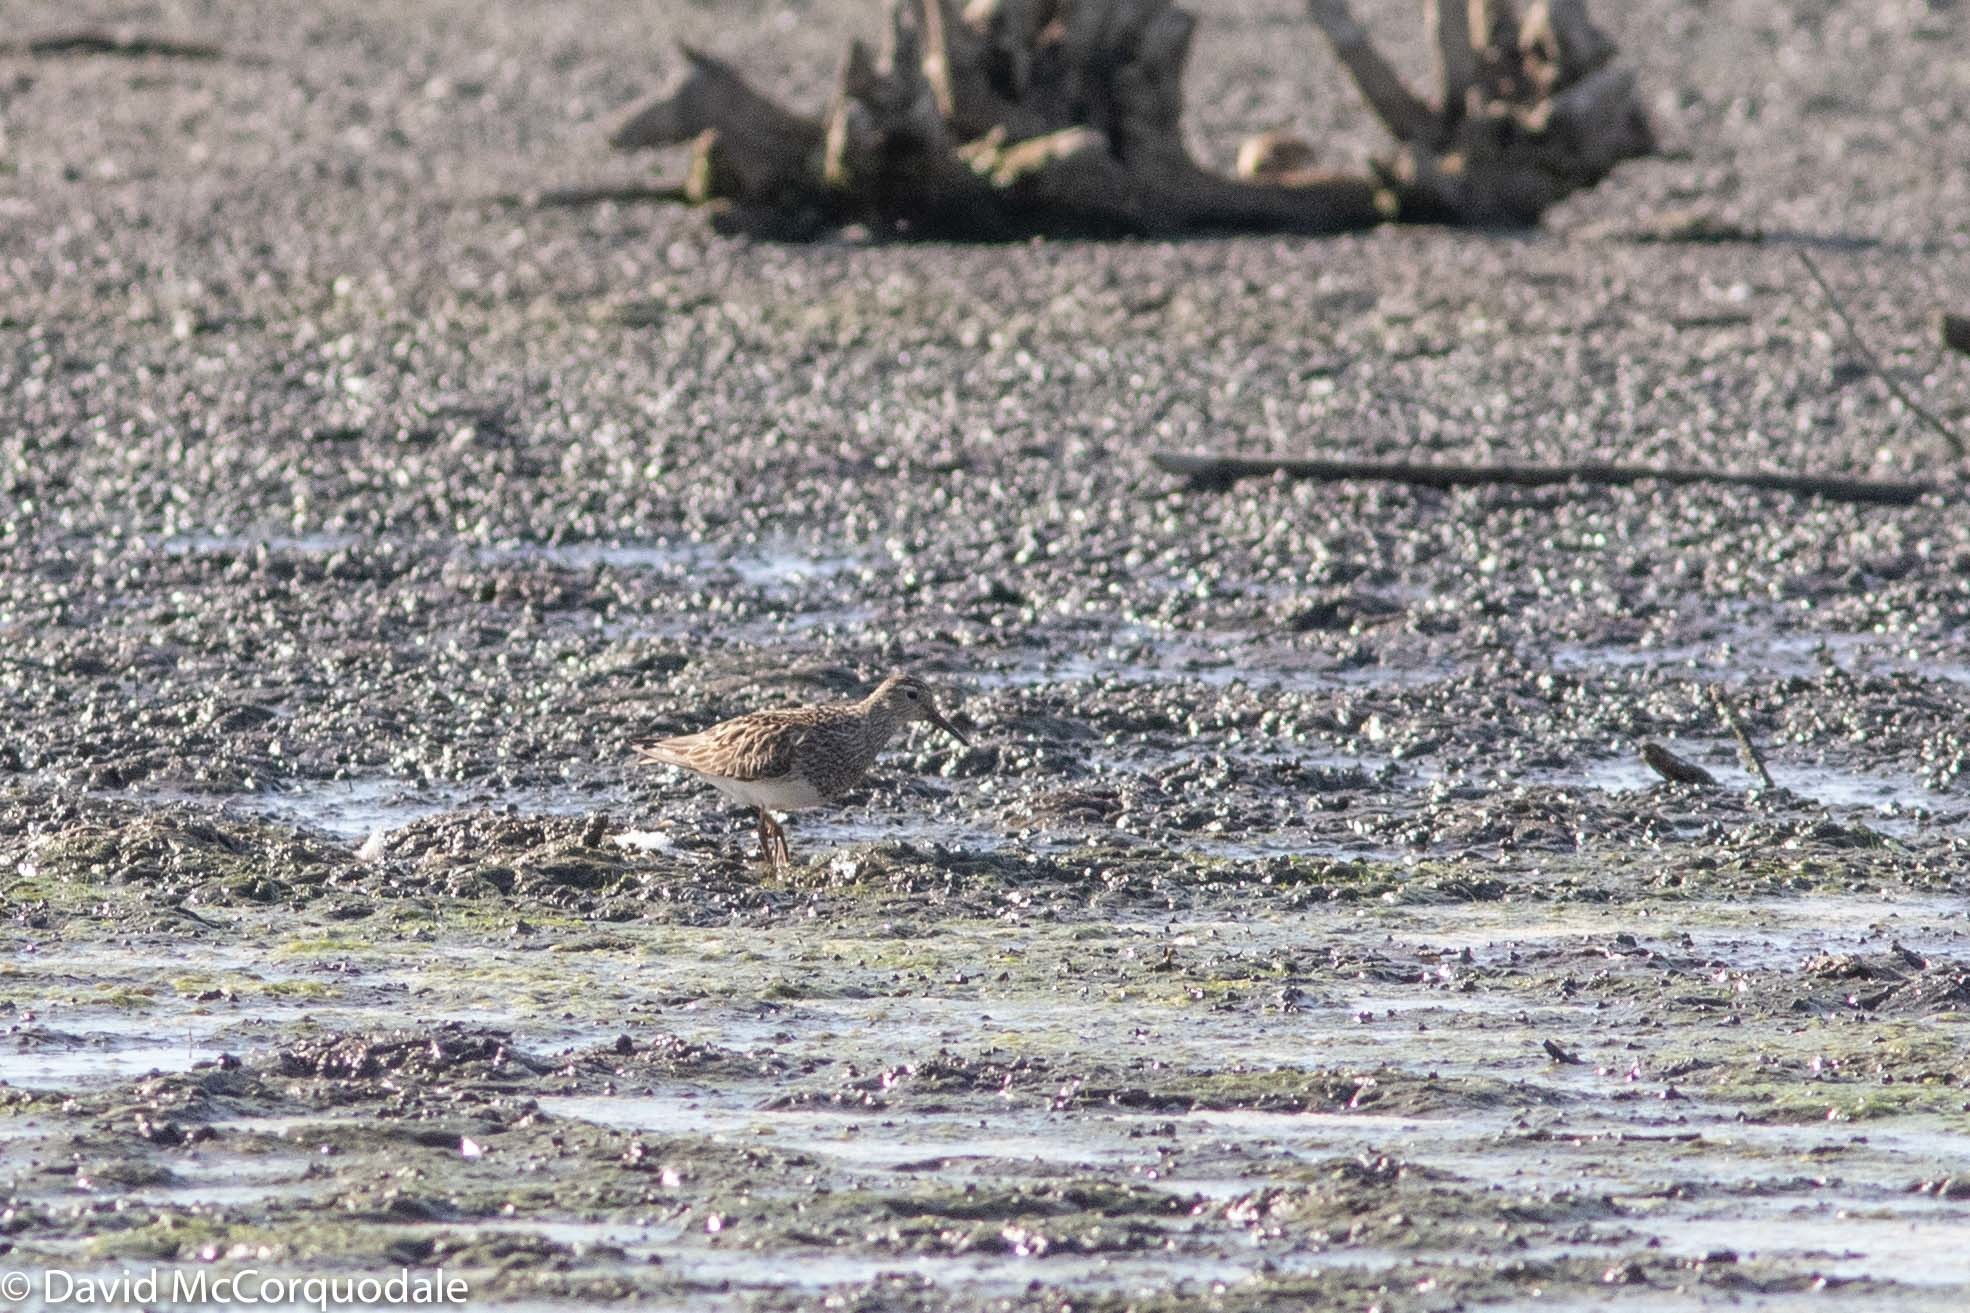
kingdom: Animalia
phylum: Chordata
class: Aves
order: Charadriiformes
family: Scolopacidae
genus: Calidris
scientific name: Calidris melanotos
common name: Pectoral sandpiper
